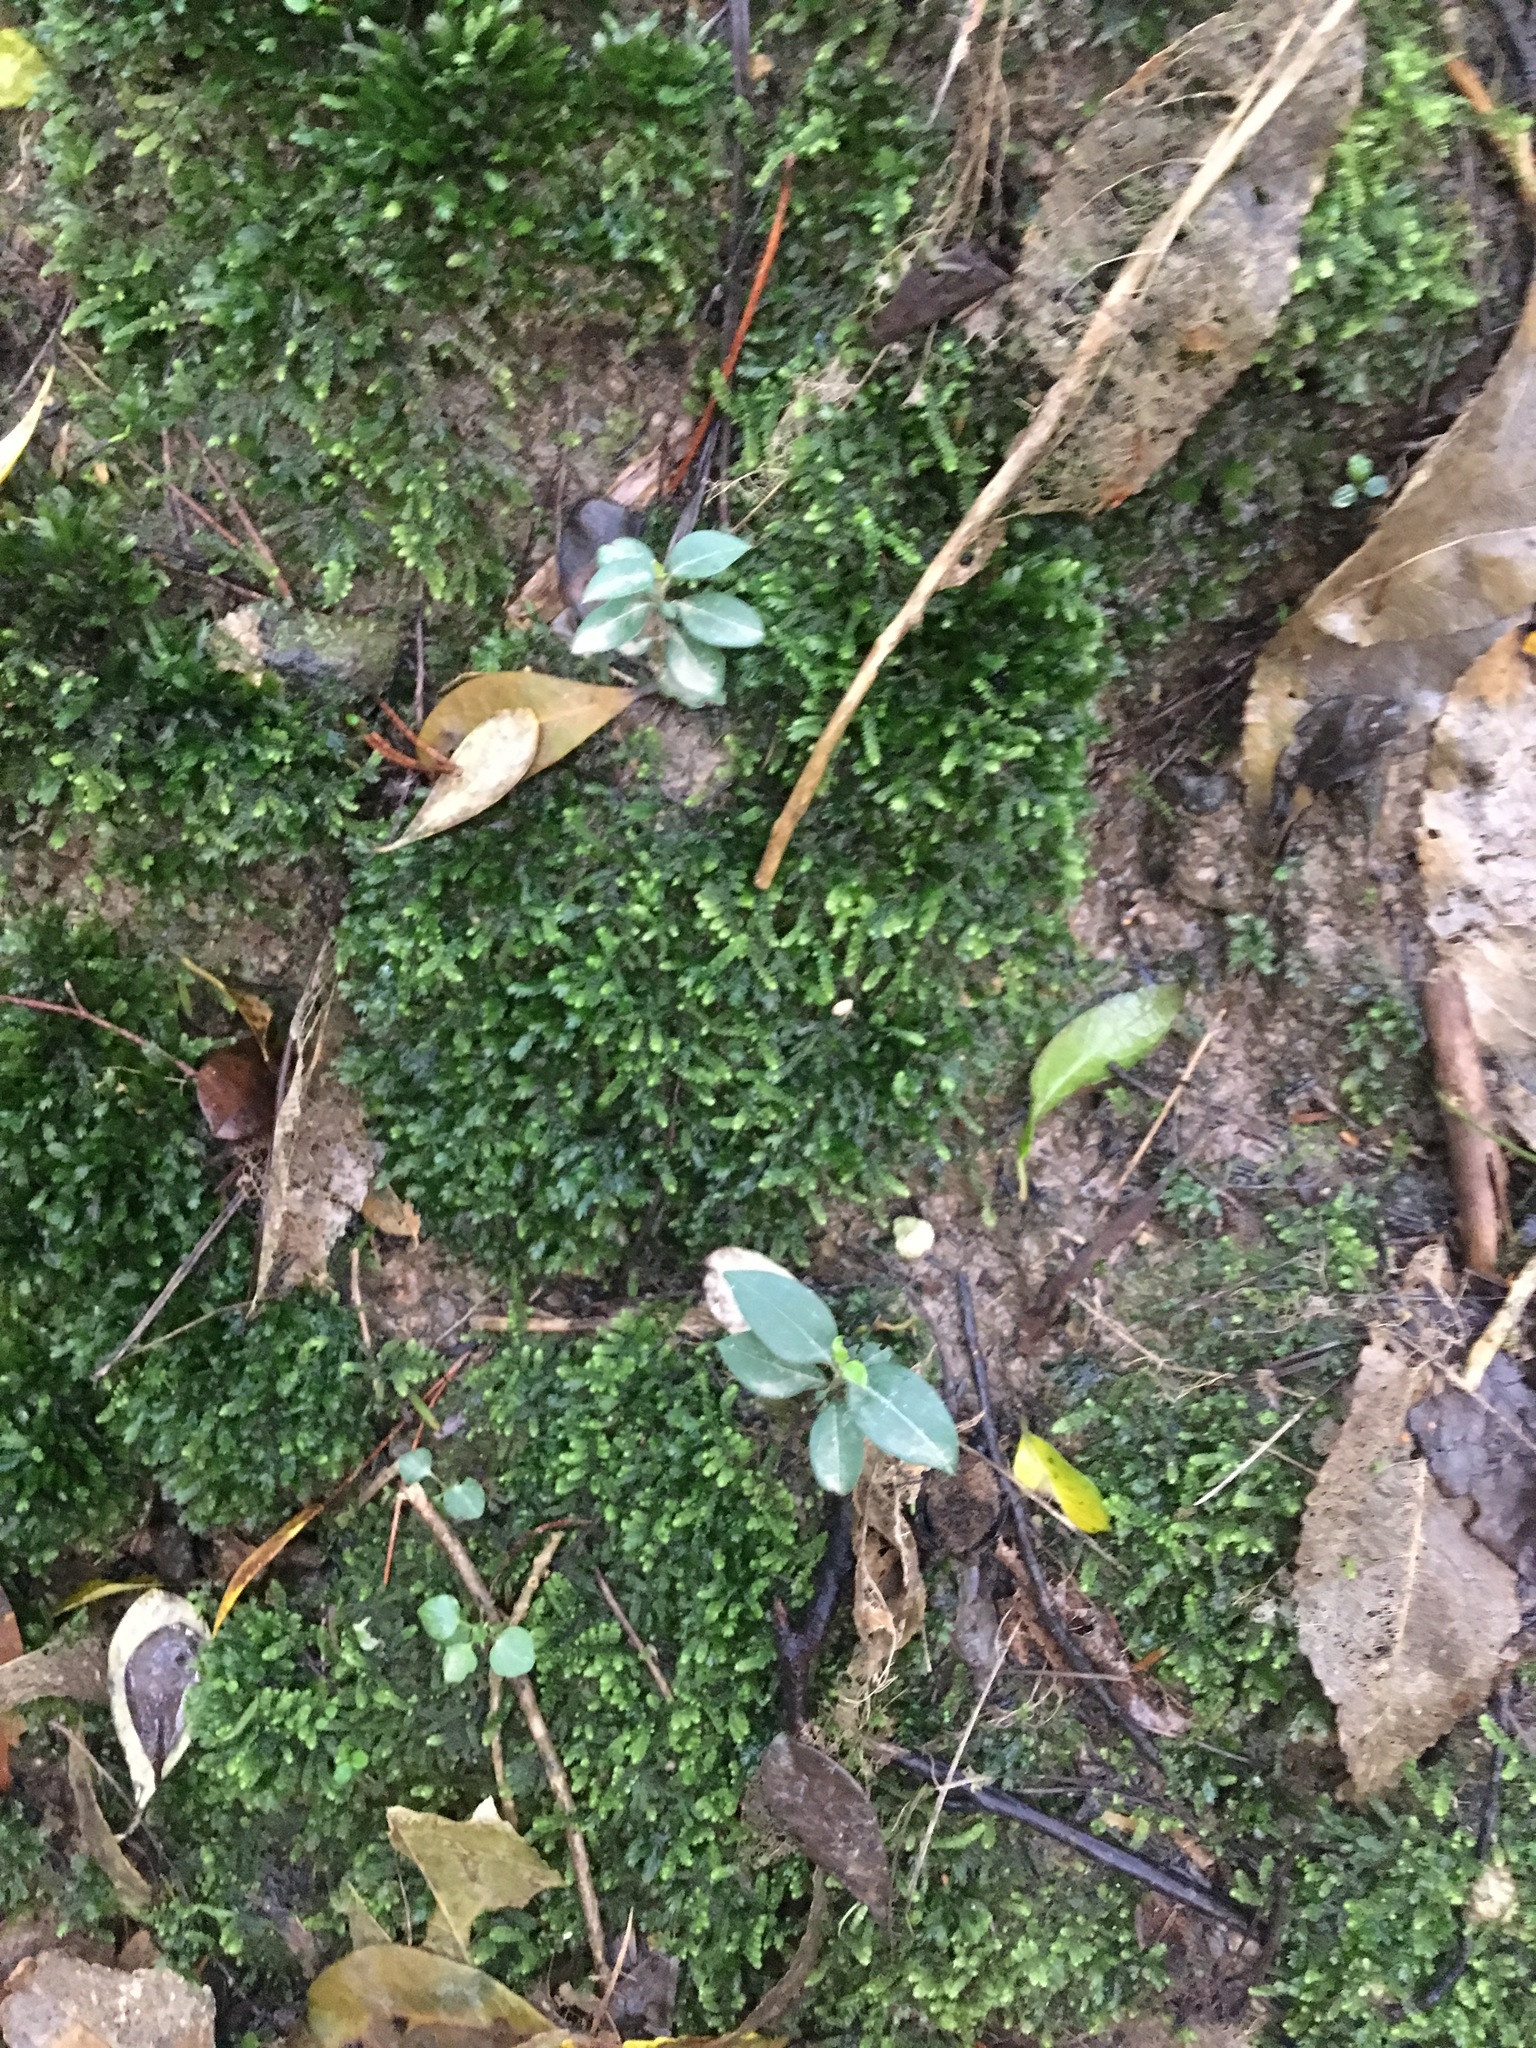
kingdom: Plantae
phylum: Tracheophyta
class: Magnoliopsida
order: Lamiales
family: Oleaceae
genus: Ligustrum
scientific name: Ligustrum lucidum
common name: Glossy privet
